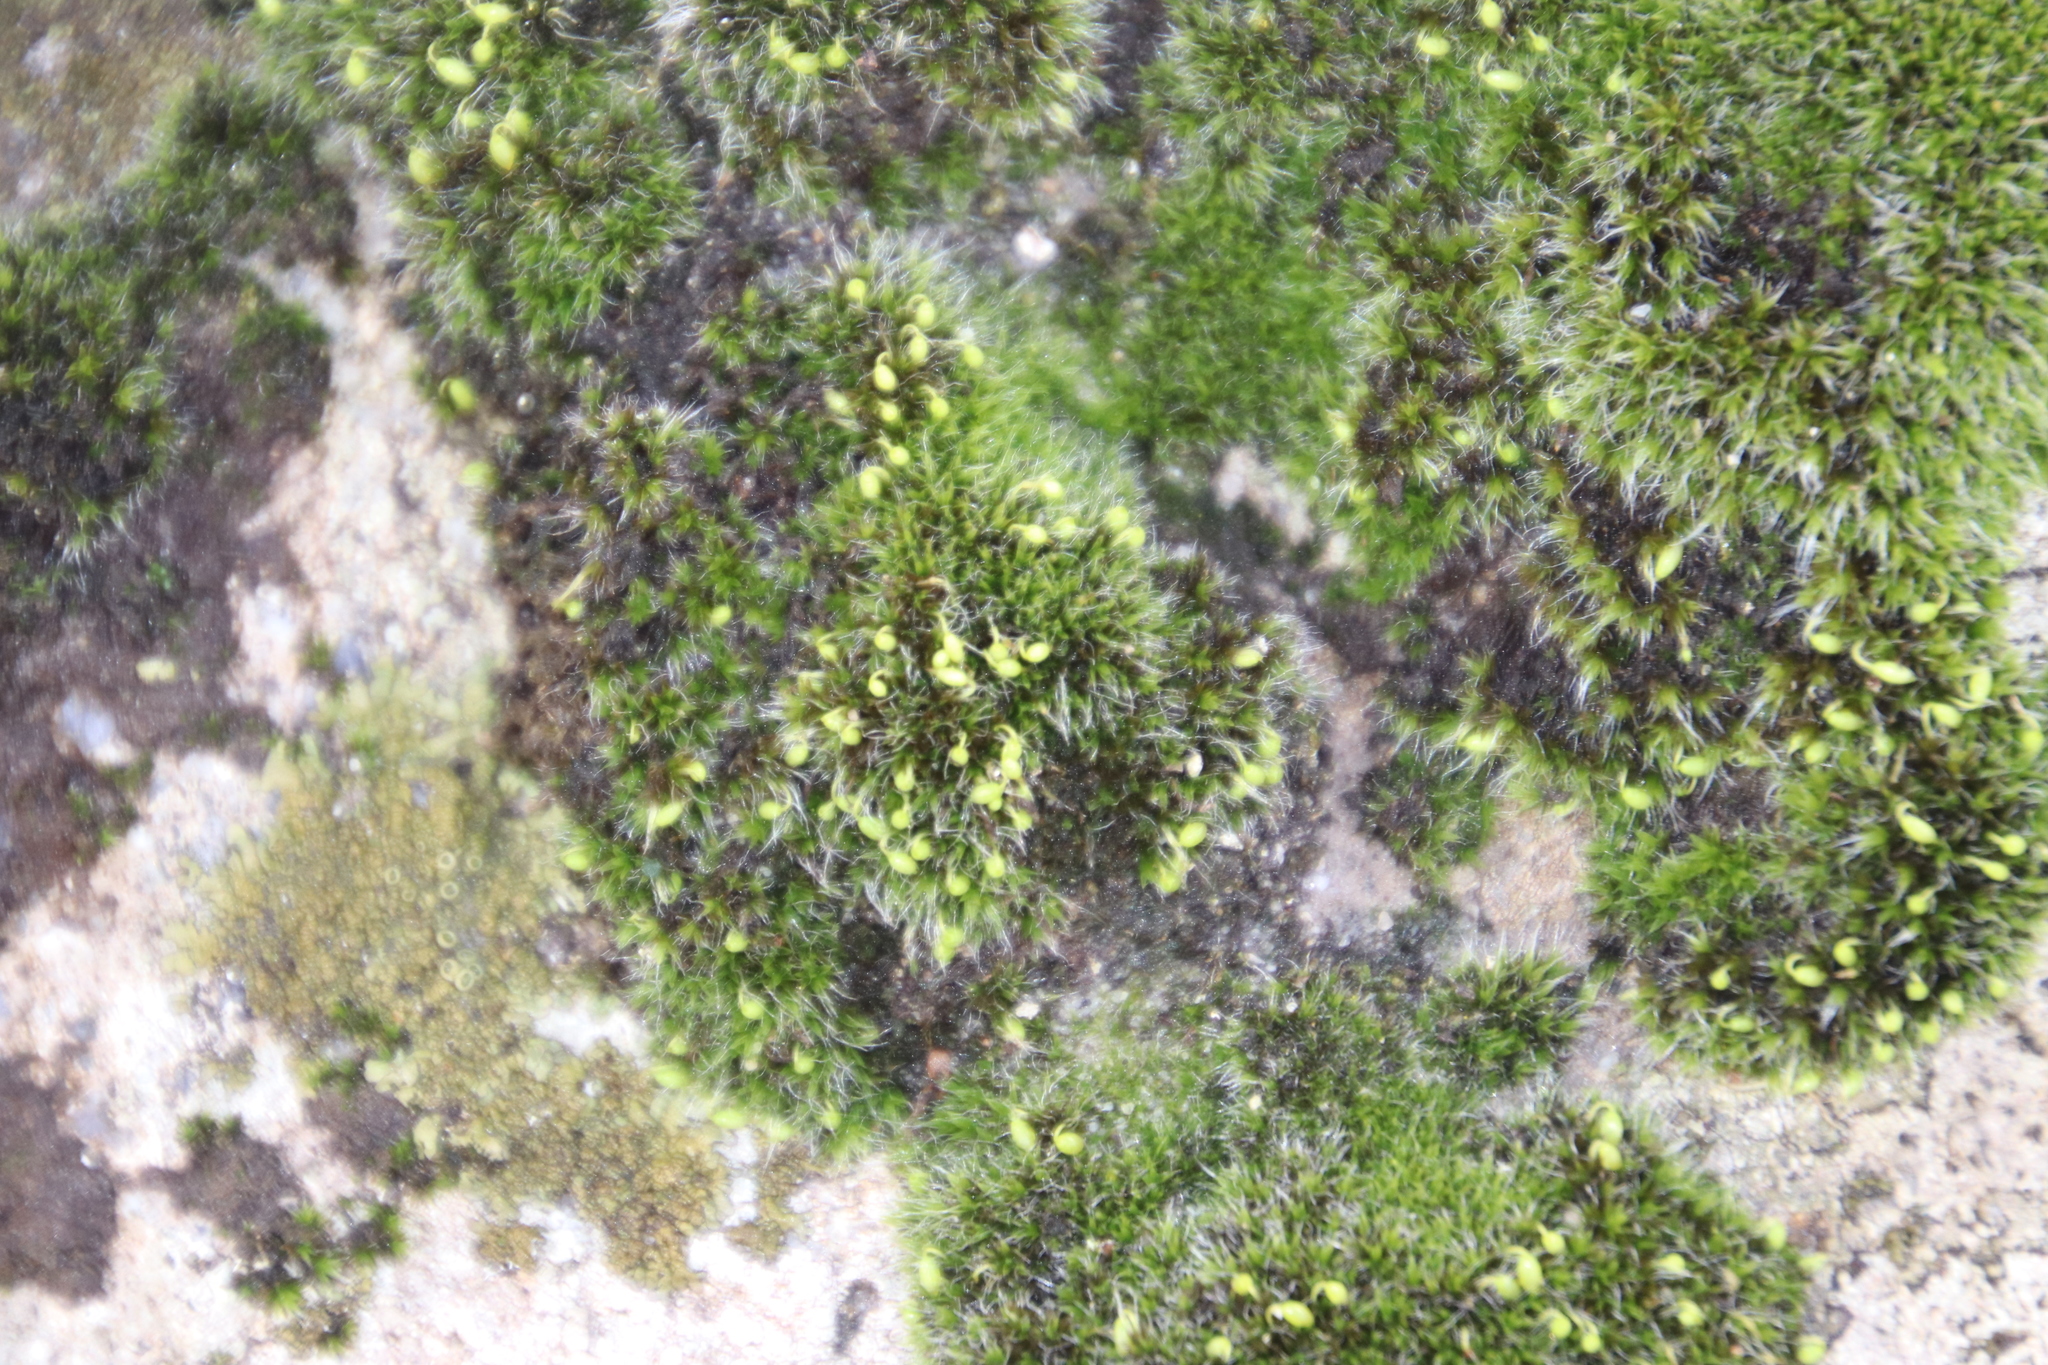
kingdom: Plantae
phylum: Bryophyta
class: Bryopsida
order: Grimmiales
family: Grimmiaceae
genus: Grimmia
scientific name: Grimmia pulvinata
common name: Grey-cushioned grimmia
